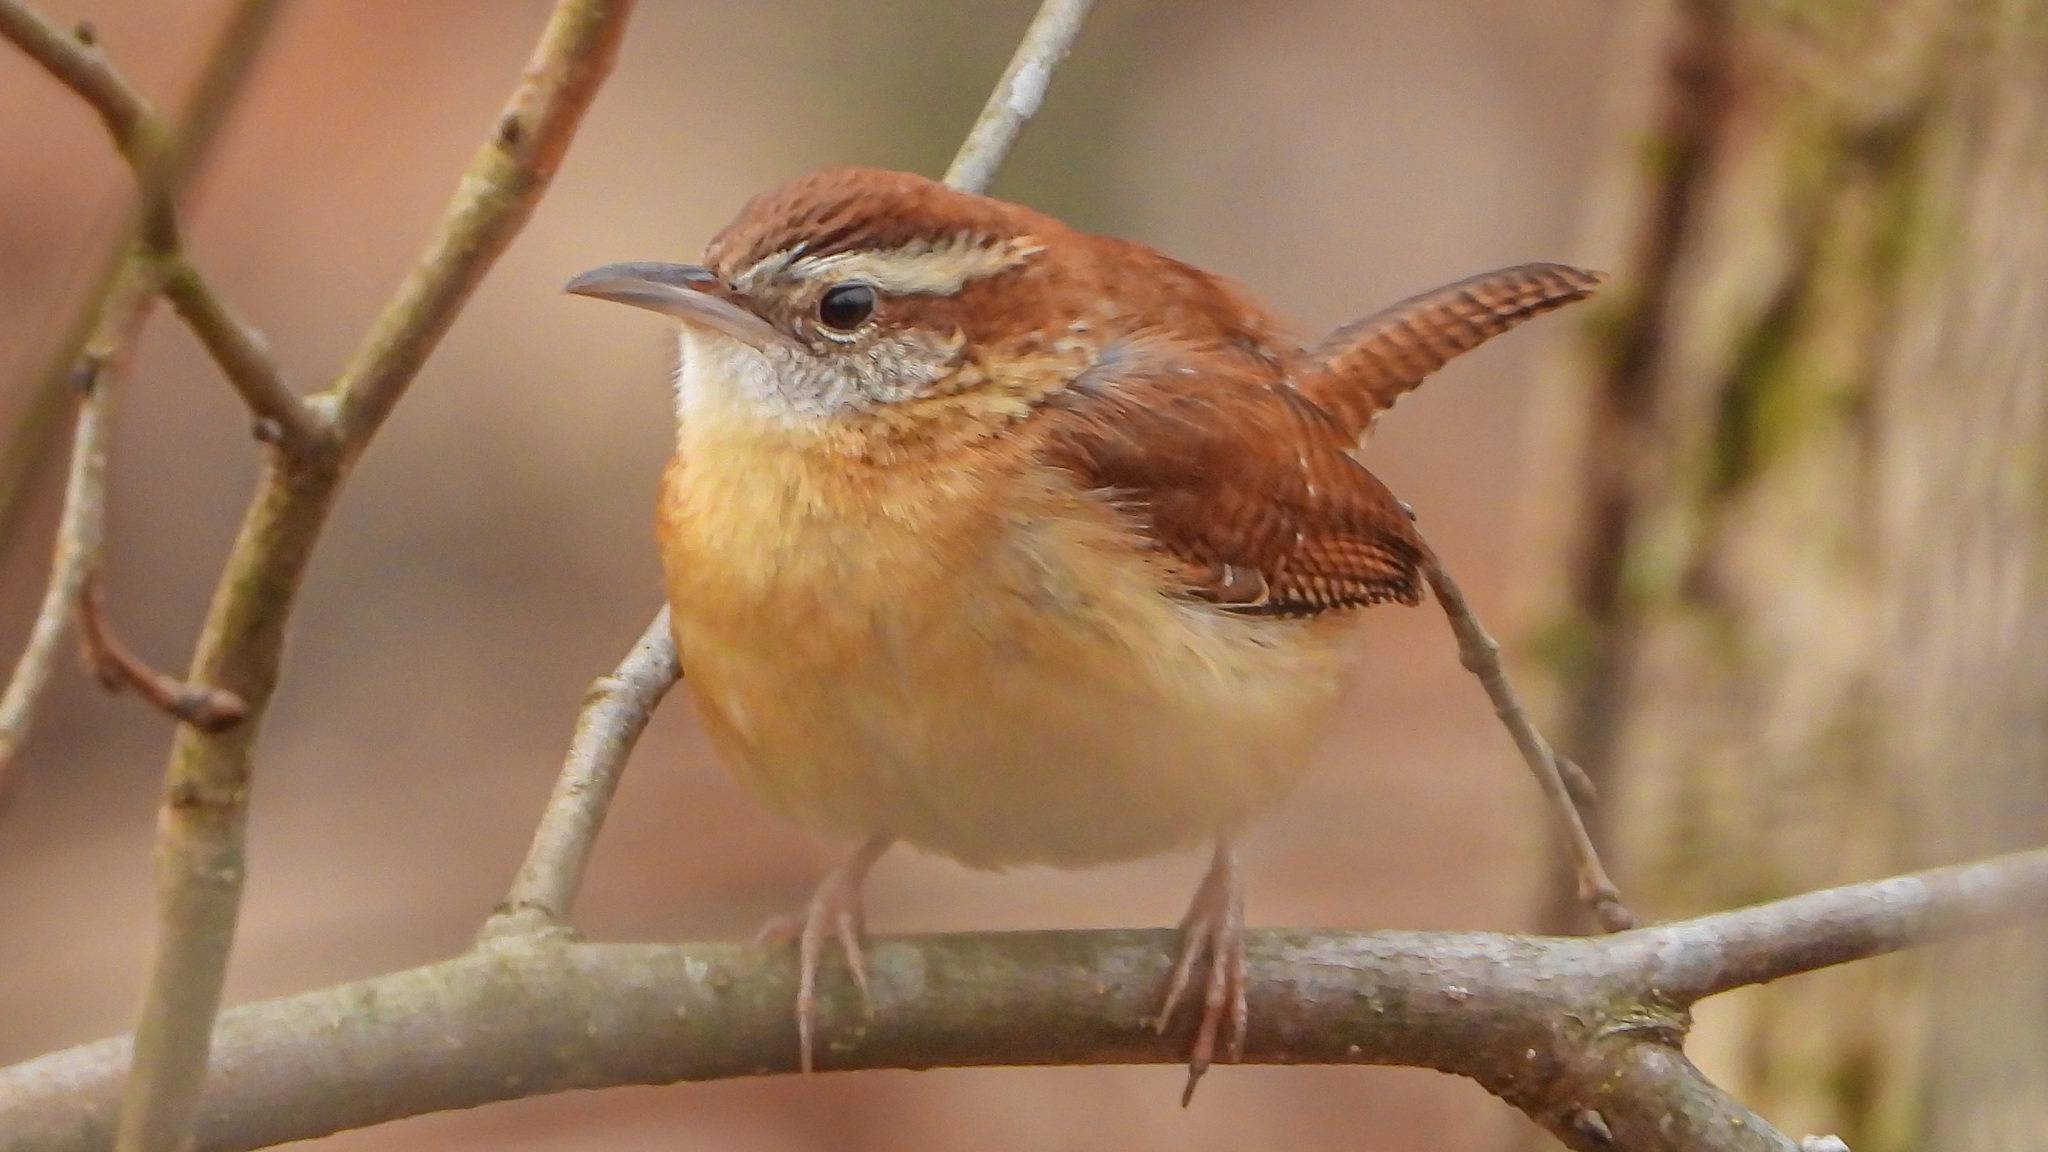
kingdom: Animalia
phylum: Chordata
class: Aves
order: Passeriformes
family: Troglodytidae
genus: Thryothorus
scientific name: Thryothorus ludovicianus
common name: Carolina wren
